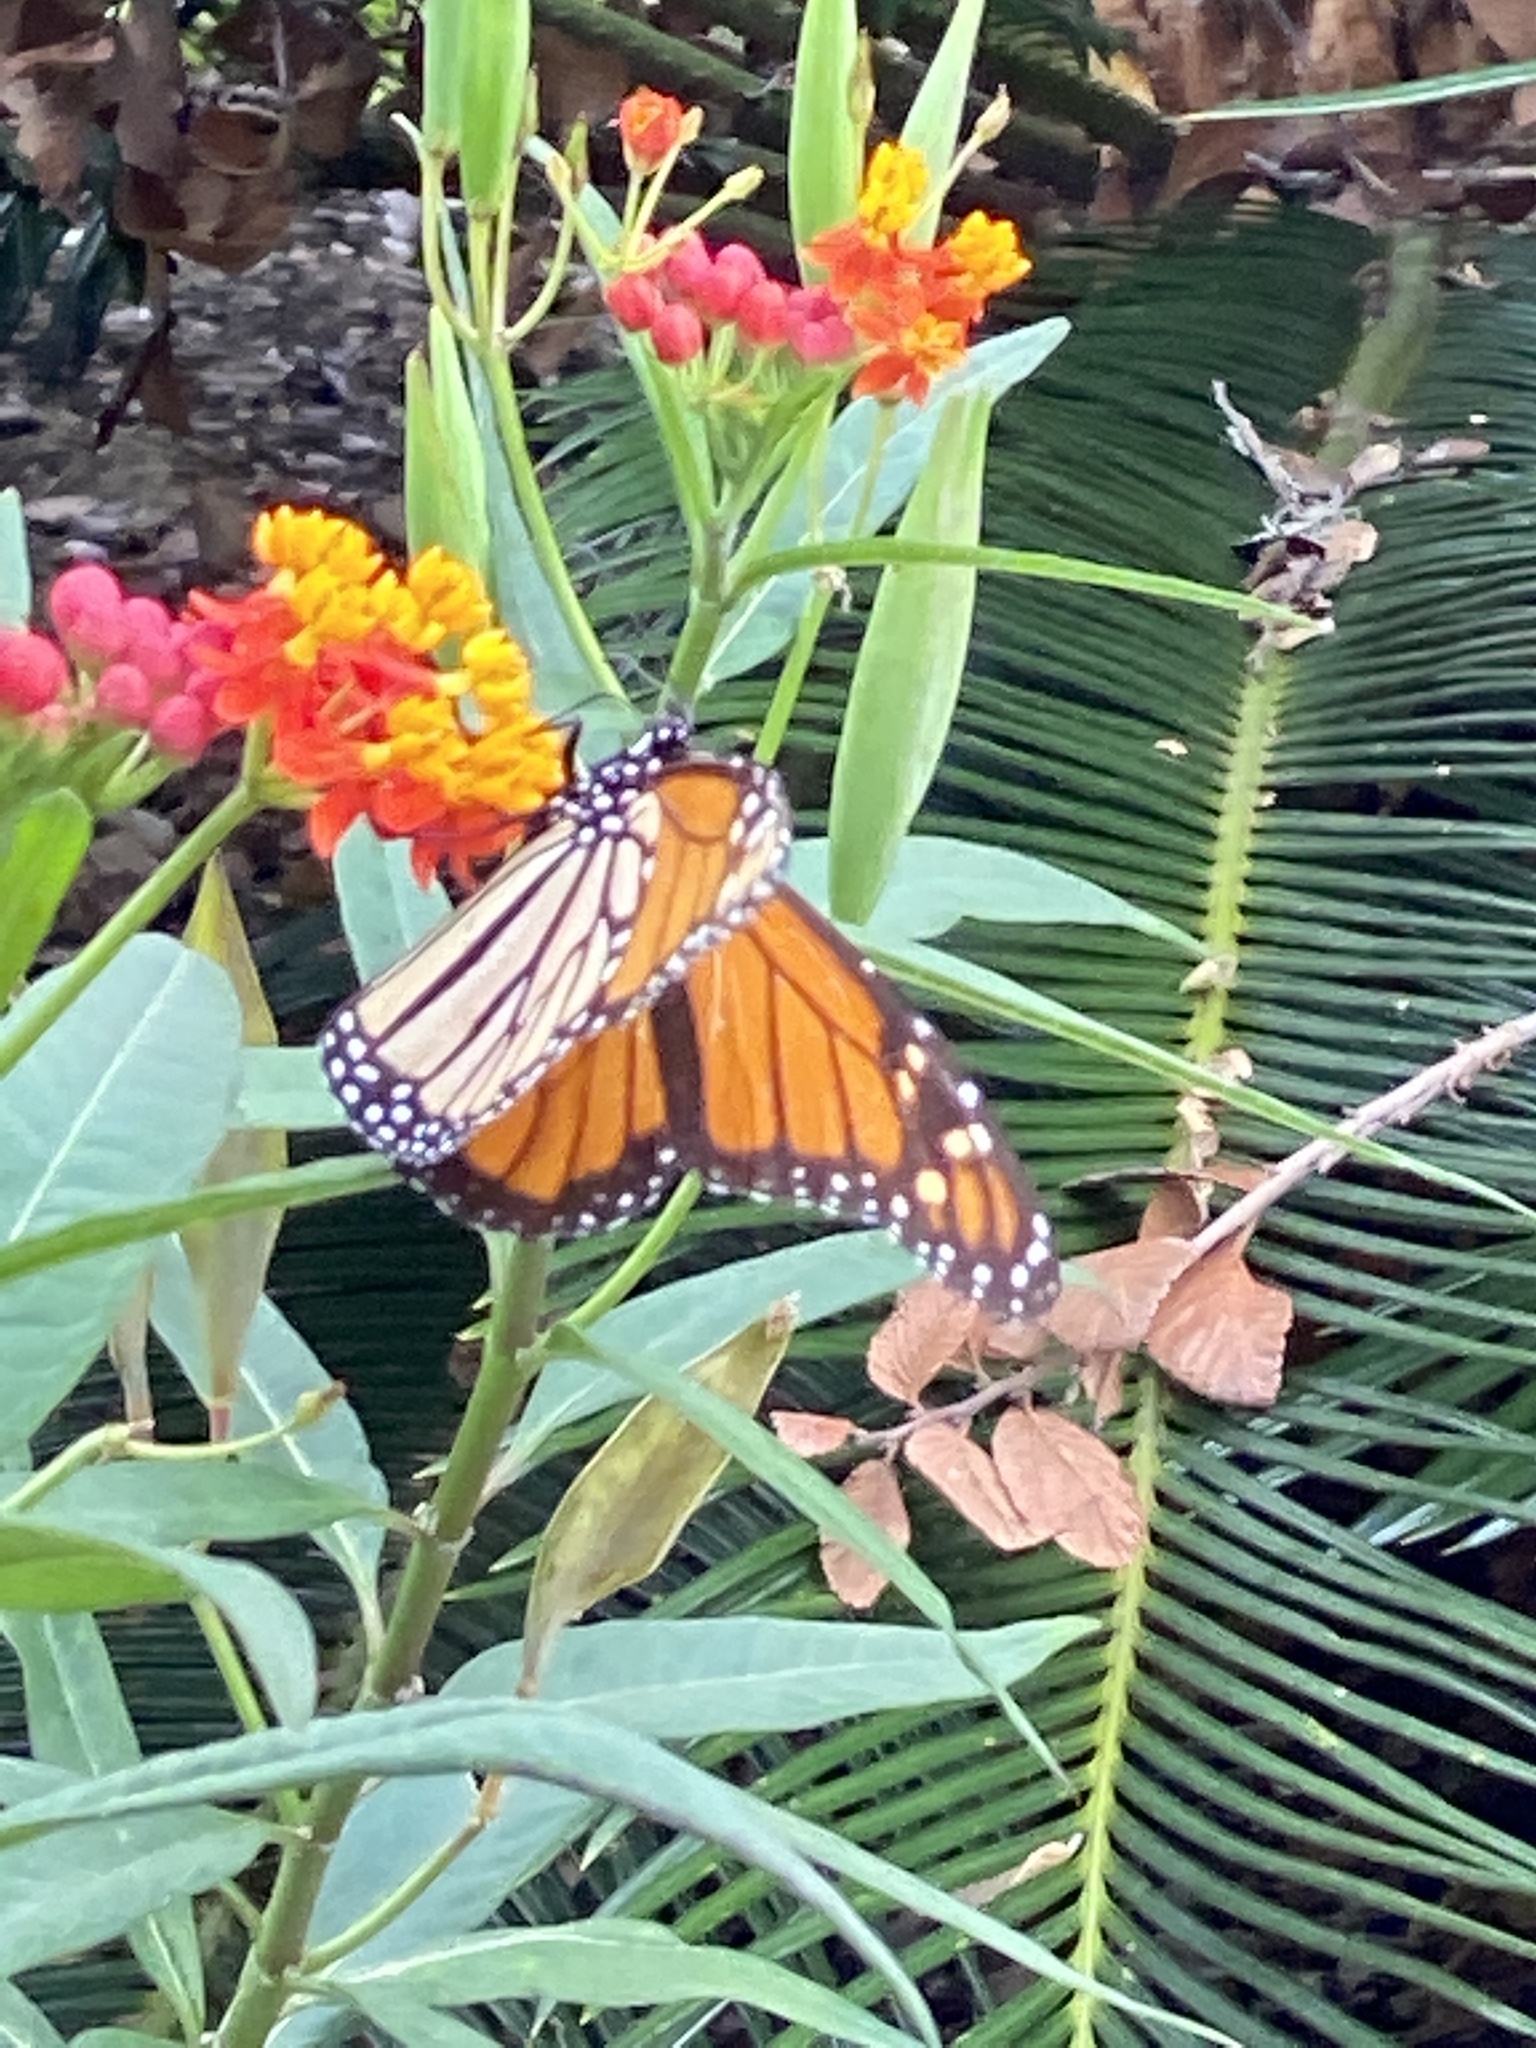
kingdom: Animalia
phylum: Arthropoda
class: Insecta
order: Lepidoptera
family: Nymphalidae
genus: Danaus
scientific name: Danaus plexippus
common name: Monarch
